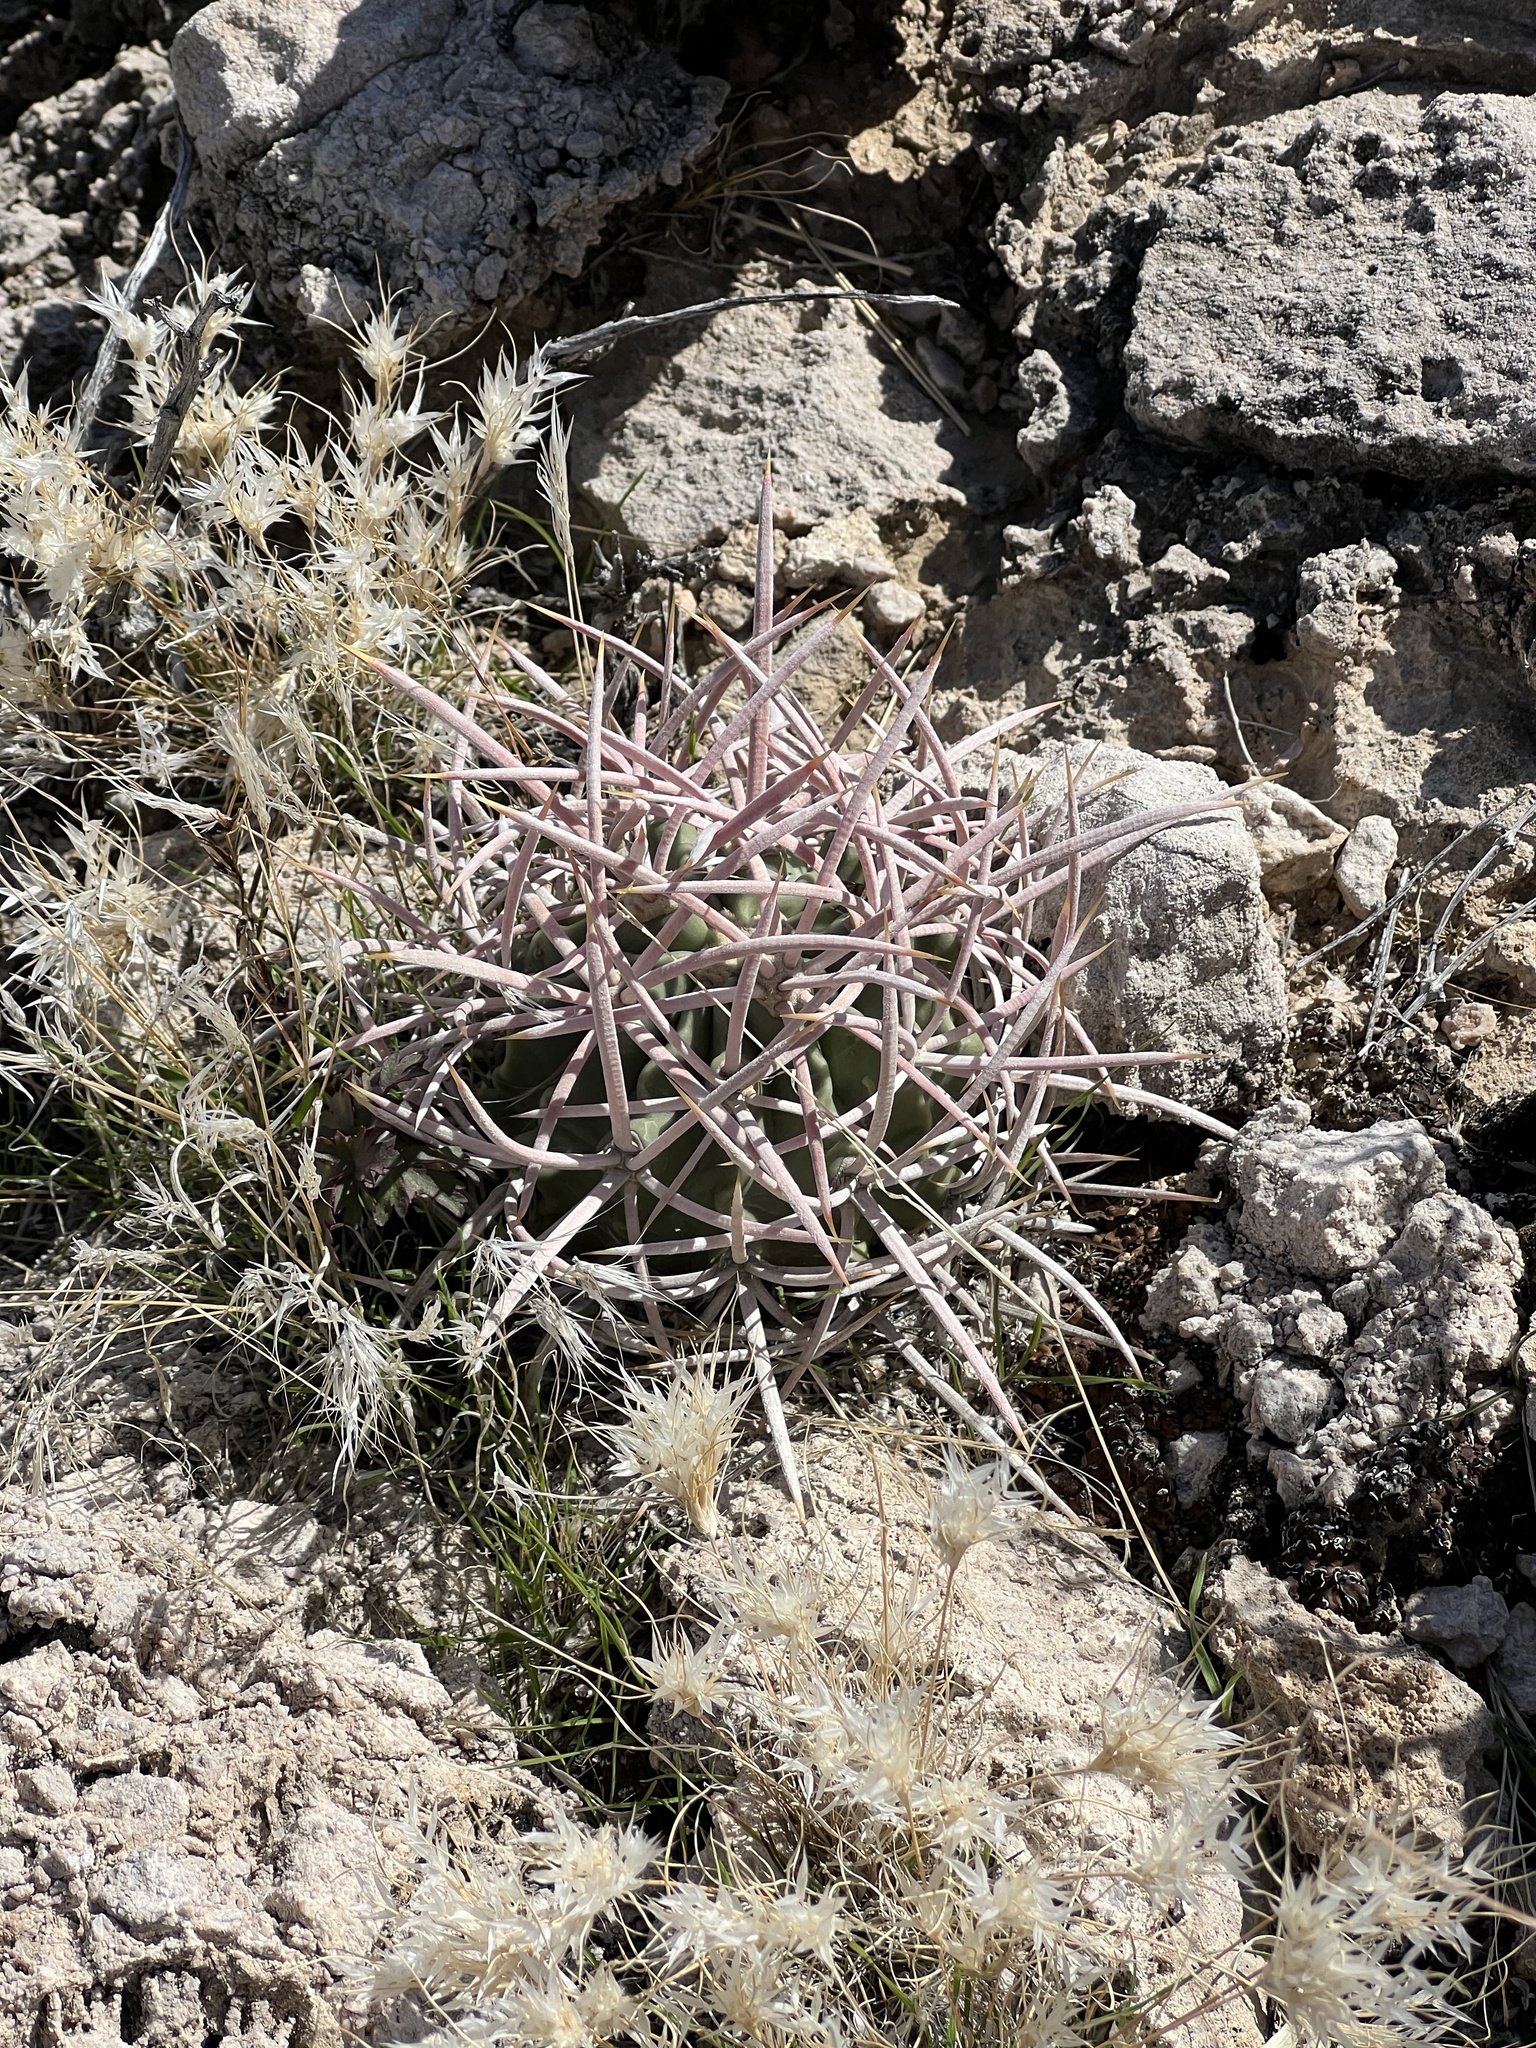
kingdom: Plantae
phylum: Tracheophyta
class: Magnoliopsida
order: Caryophyllales
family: Cactaceae
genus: Echinocactus
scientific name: Echinocactus polycephalus
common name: Cottontop cactus
